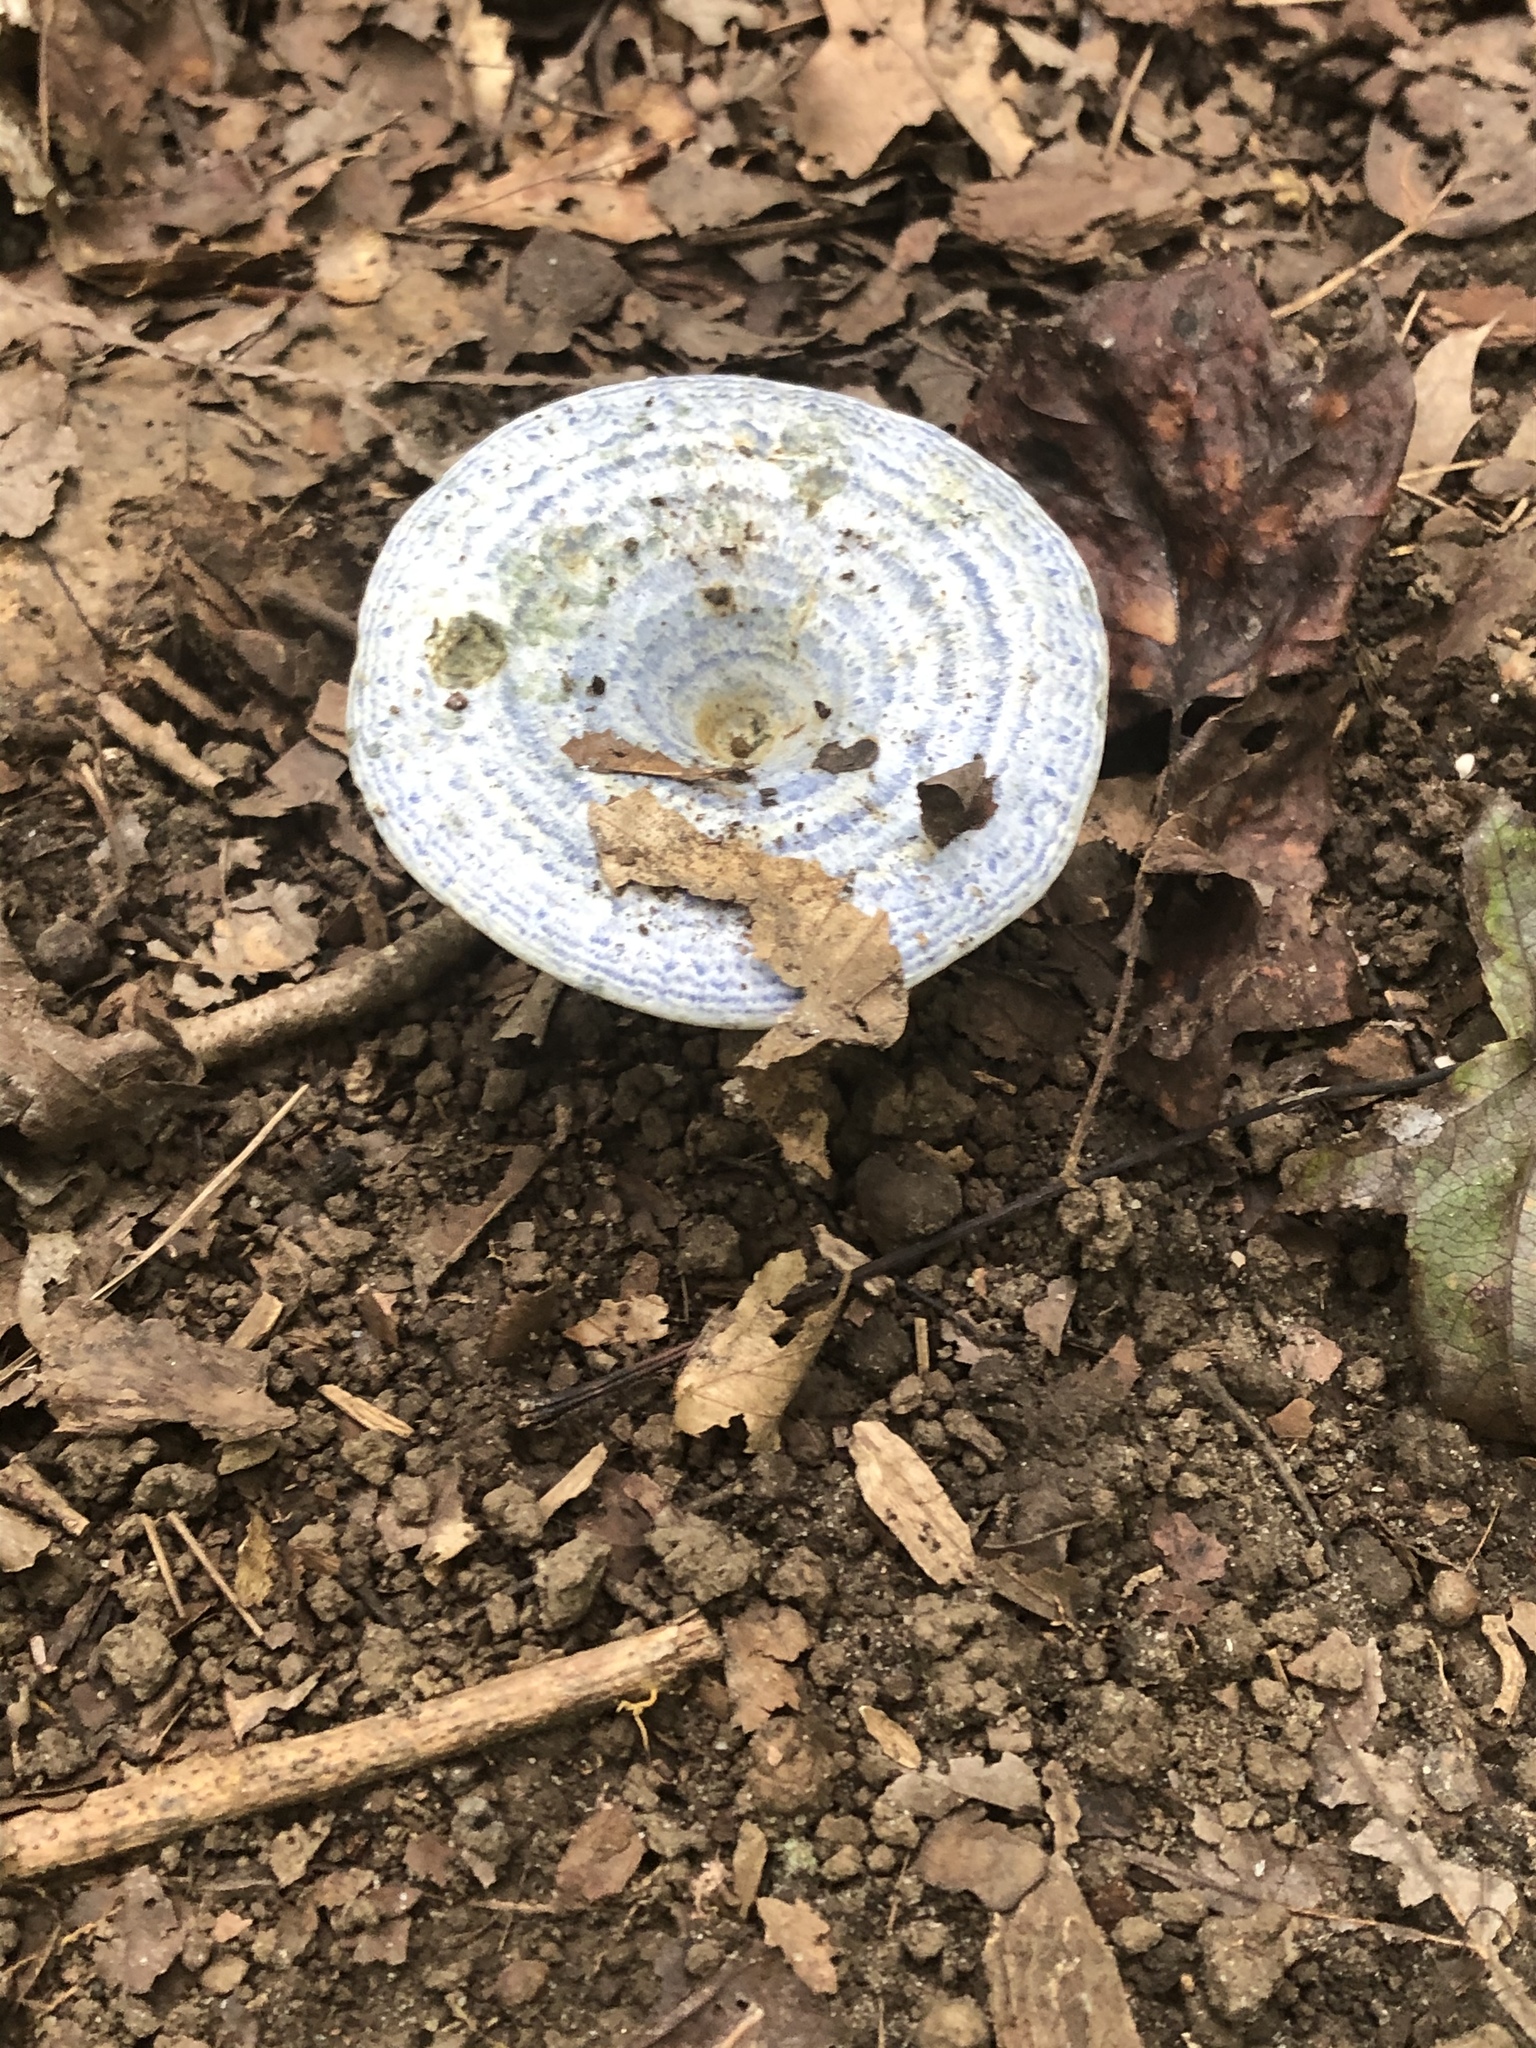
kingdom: Fungi
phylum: Basidiomycota
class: Agaricomycetes
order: Russulales
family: Russulaceae
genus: Lactarius
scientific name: Lactarius indigo
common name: Indigo milk cap
